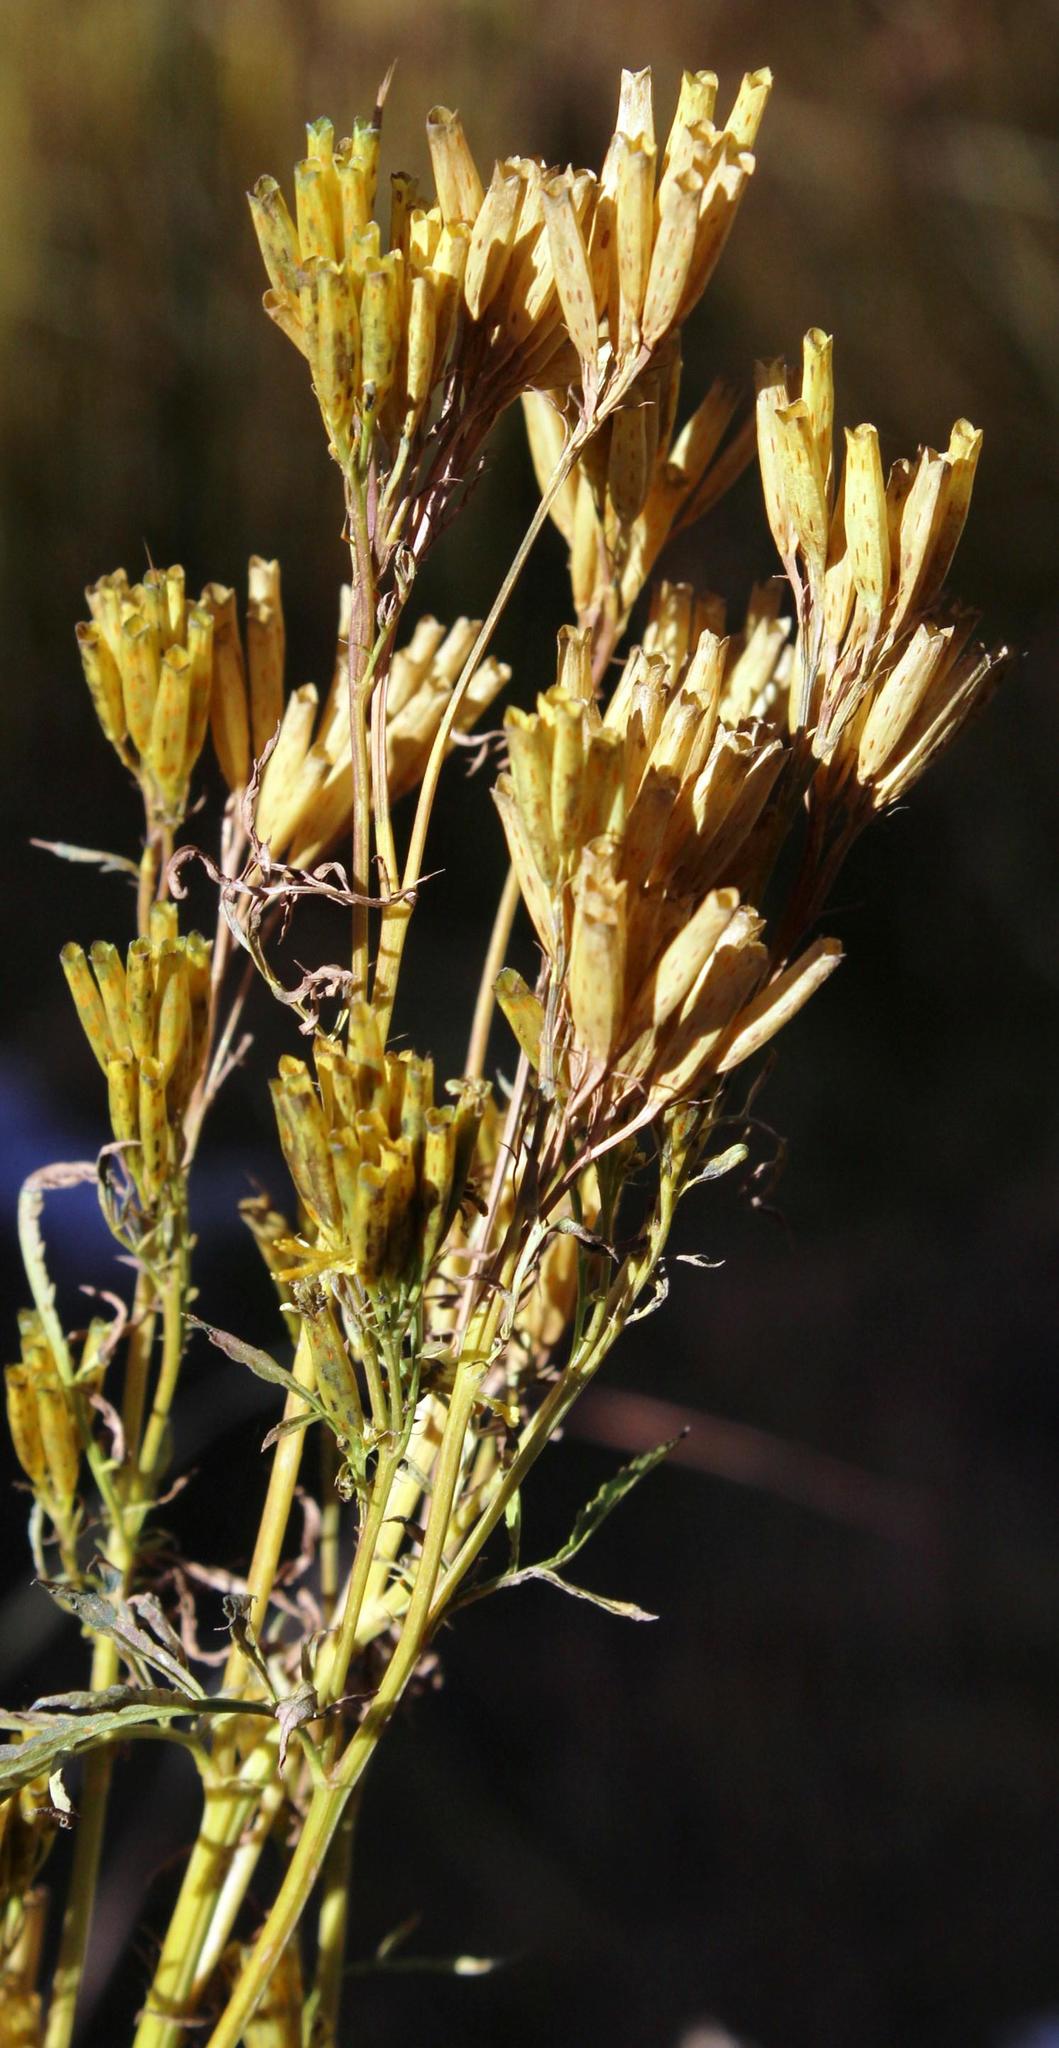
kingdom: Plantae
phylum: Tracheophyta
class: Magnoliopsida
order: Asterales
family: Asteraceae
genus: Tagetes
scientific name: Tagetes minuta
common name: Muster john henry
